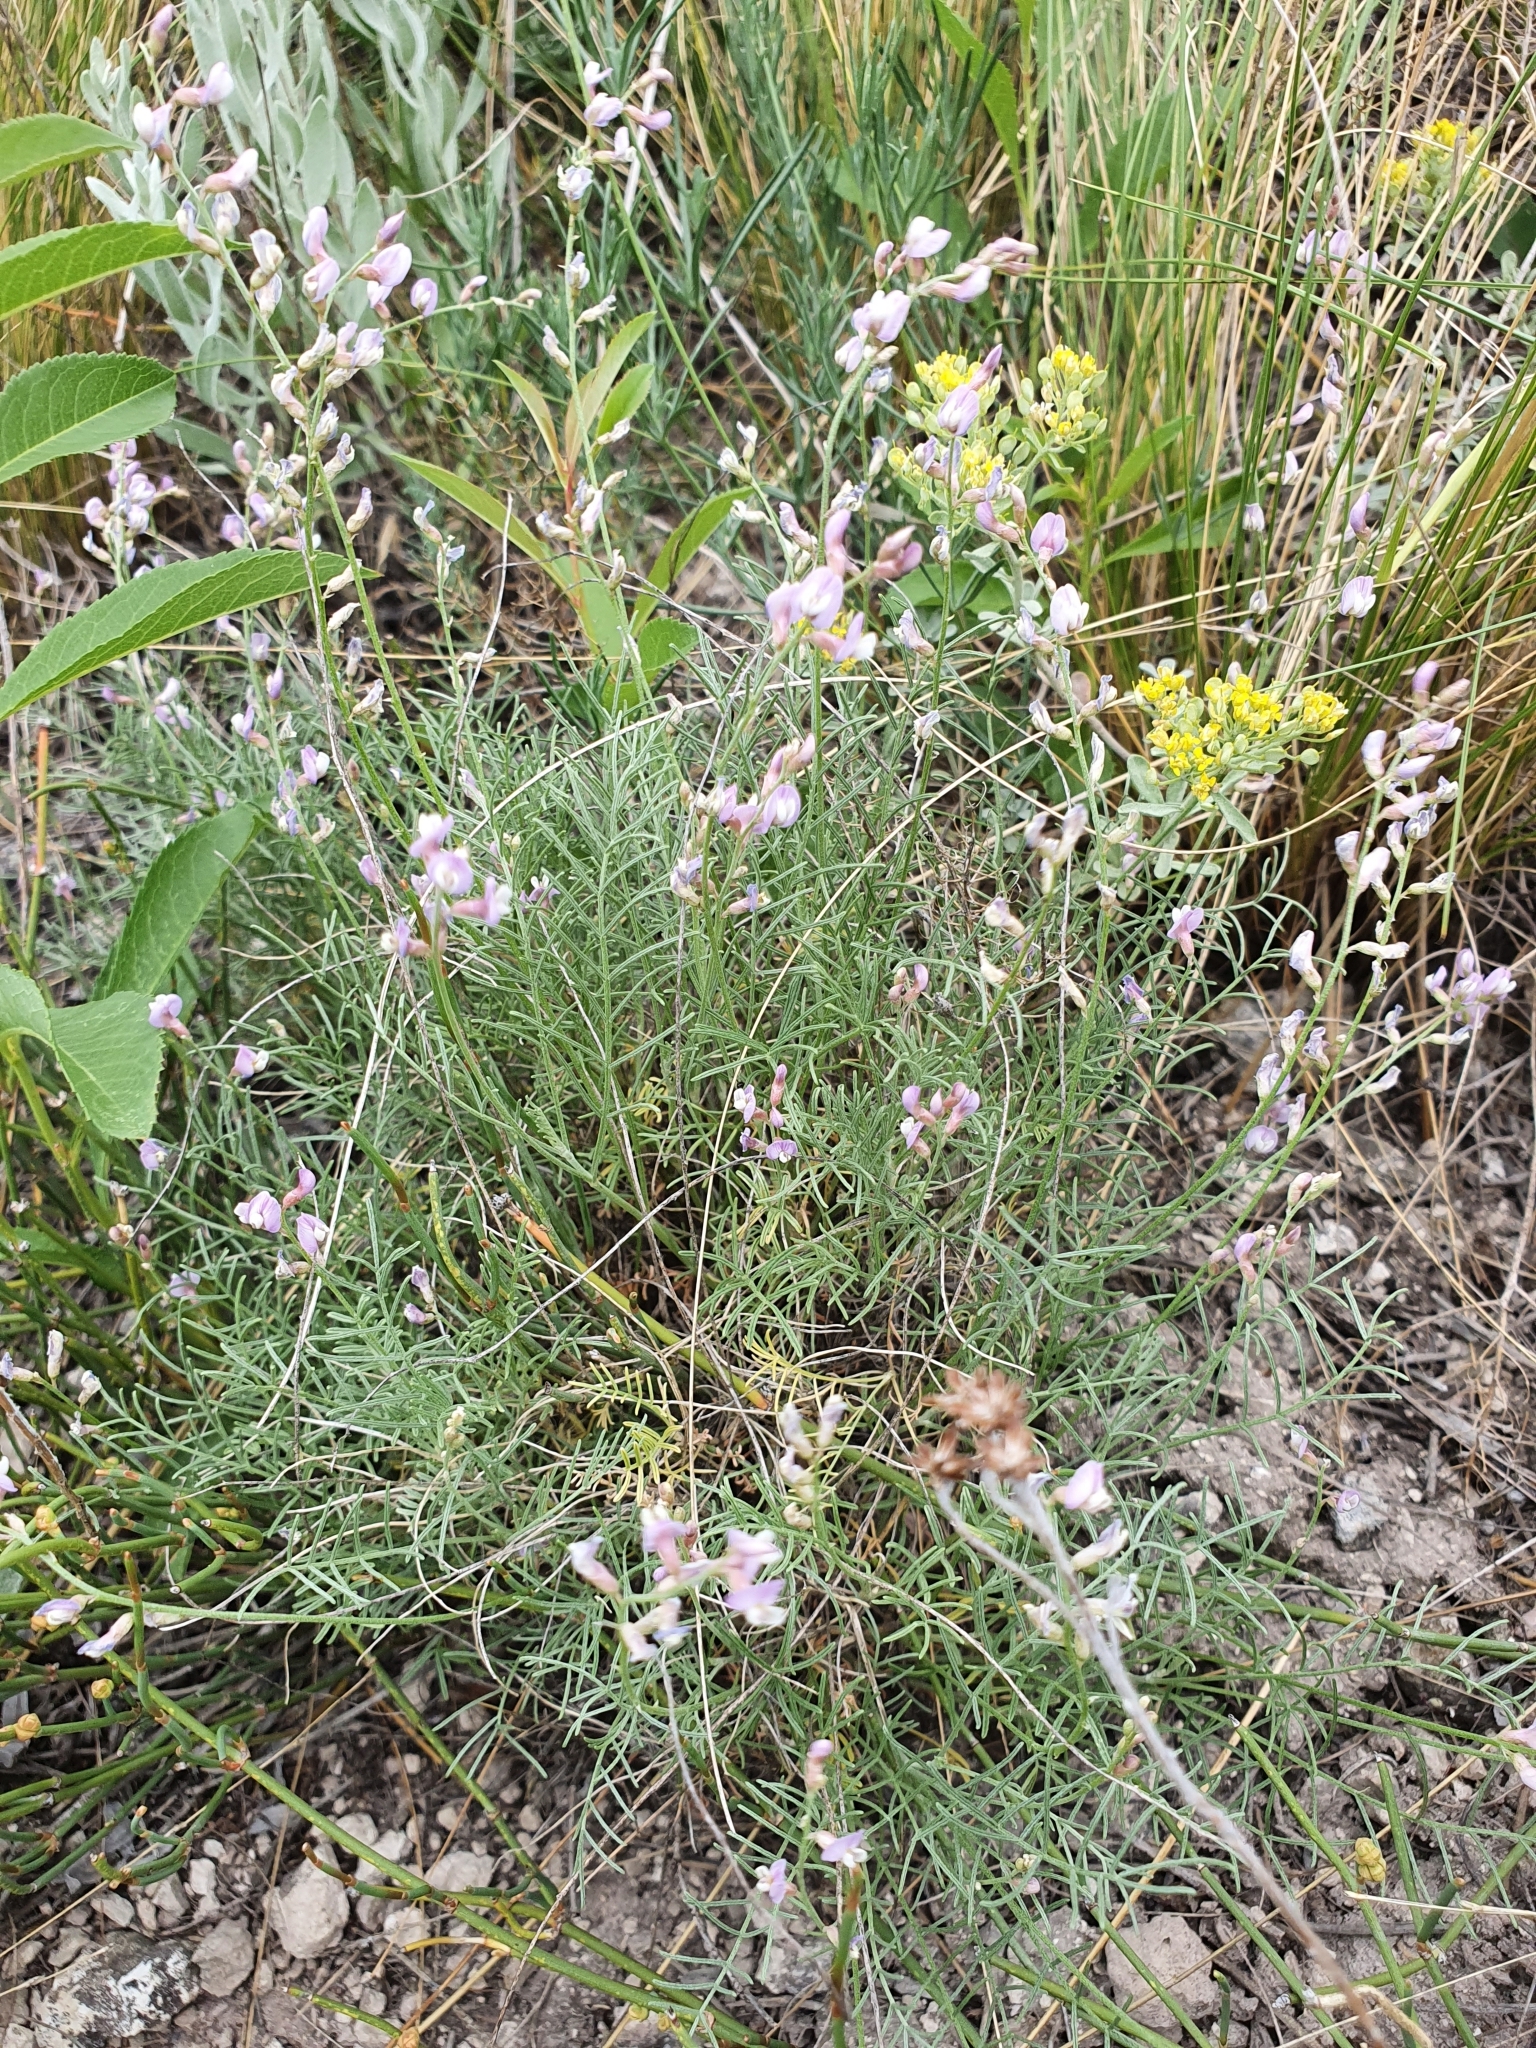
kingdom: Plantae
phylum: Tracheophyta
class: Magnoliopsida
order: Fabales
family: Fabaceae
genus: Astragalus
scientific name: Astragalus
